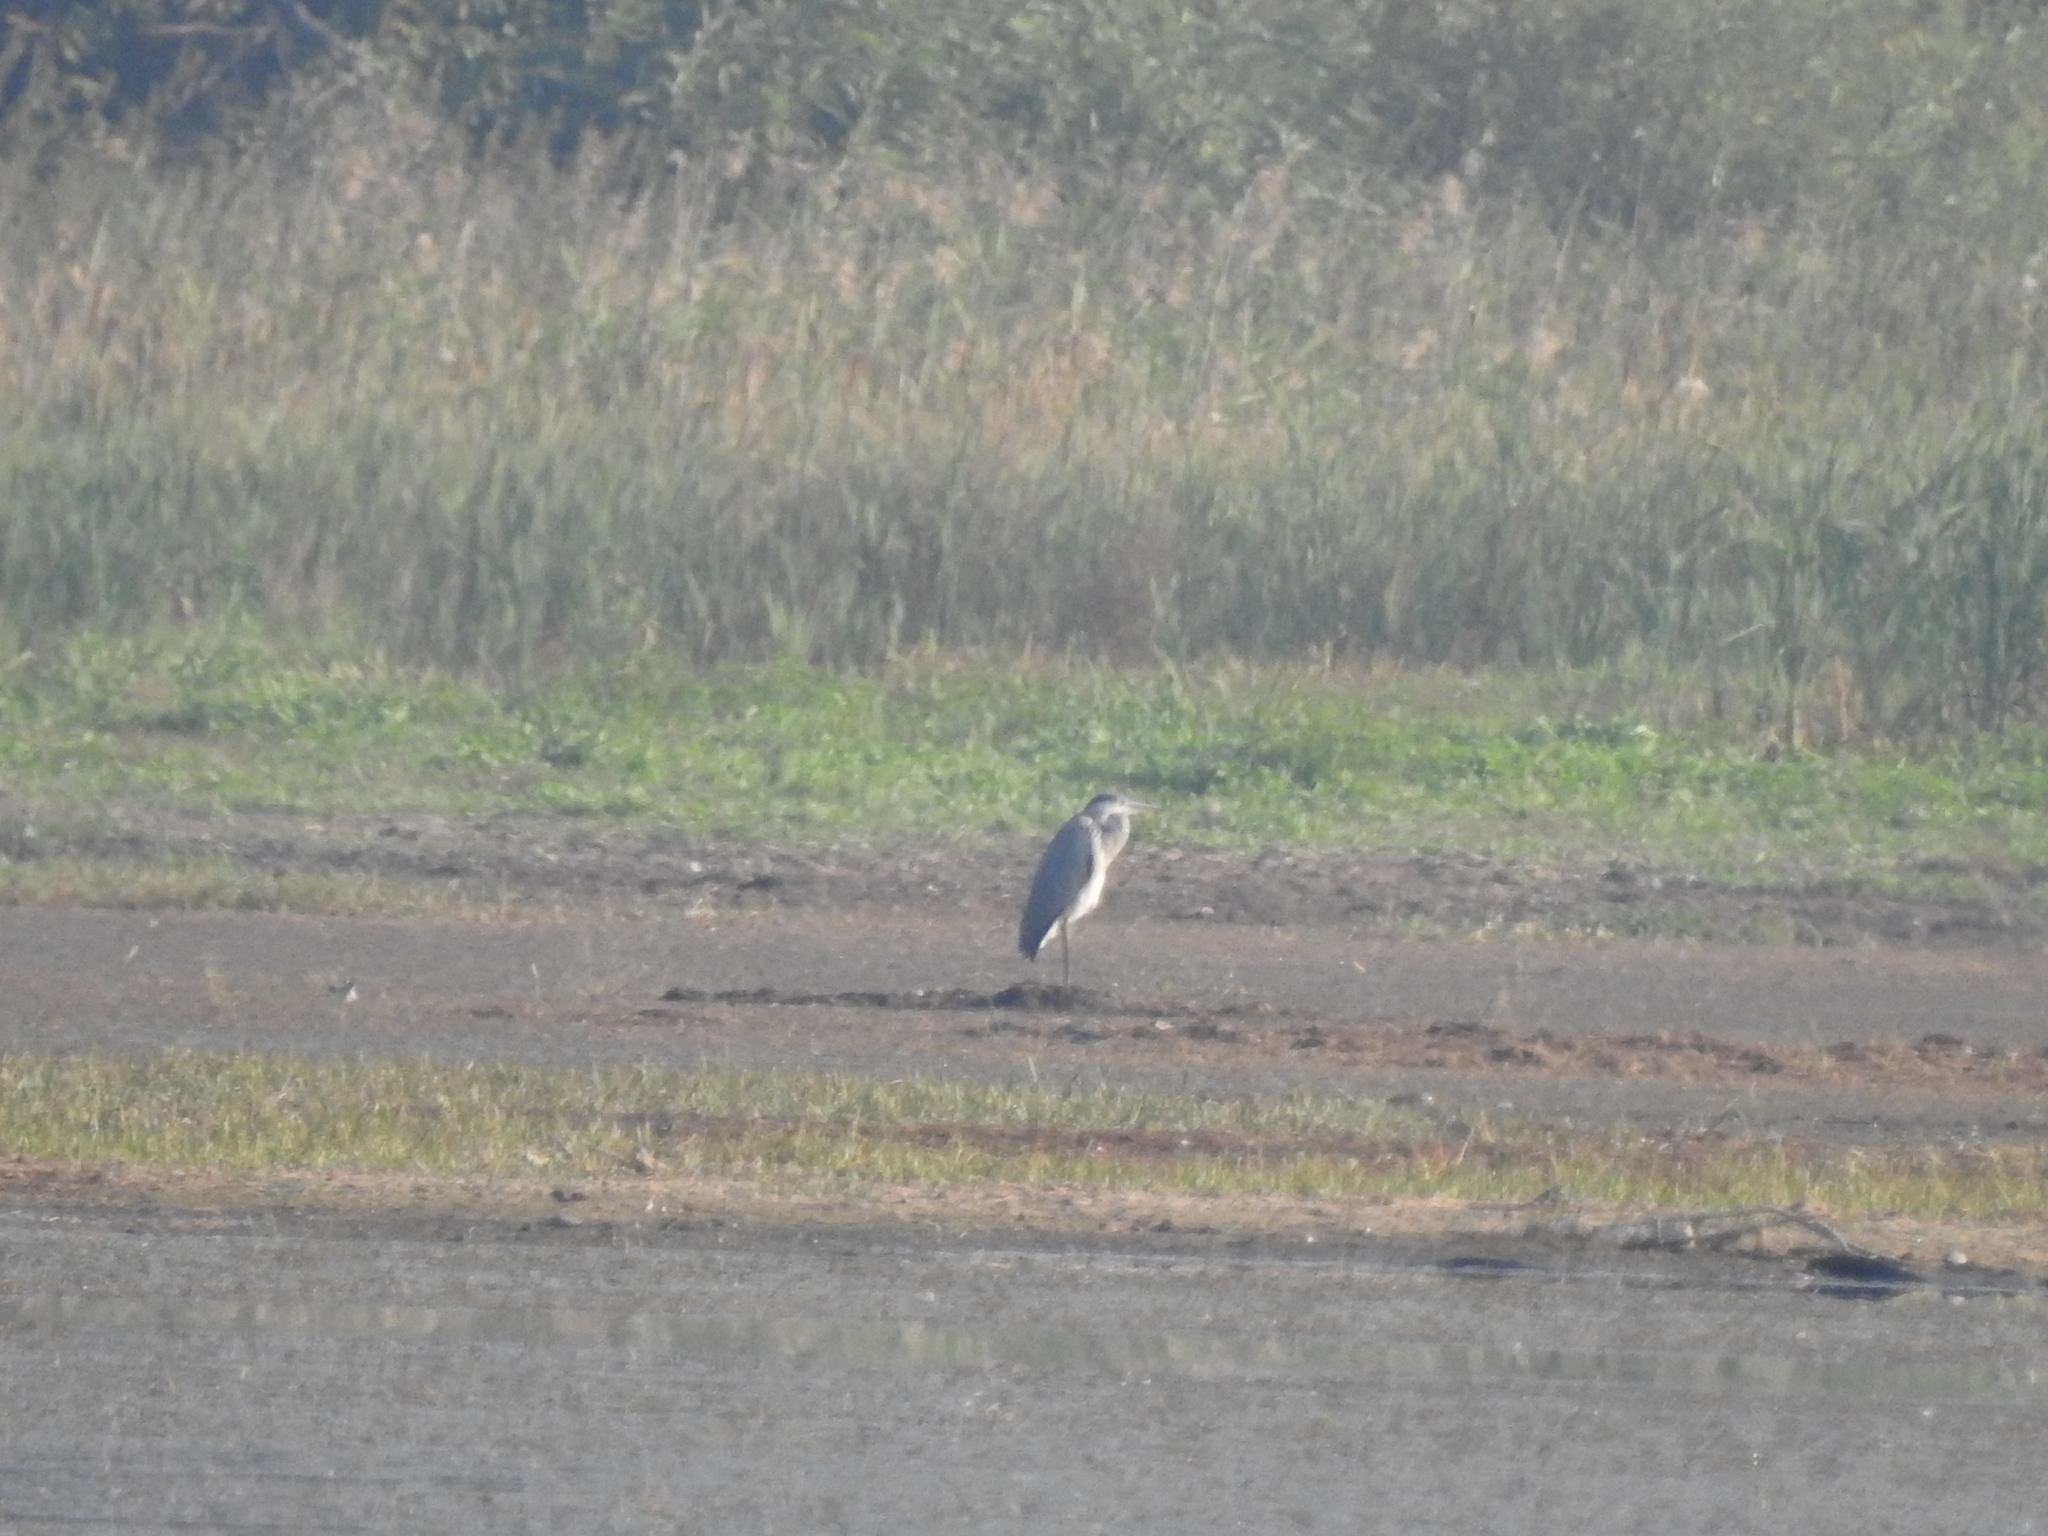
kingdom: Animalia
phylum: Chordata
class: Aves
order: Pelecaniformes
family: Ardeidae
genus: Ardea
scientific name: Ardea cinerea
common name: Grey heron
